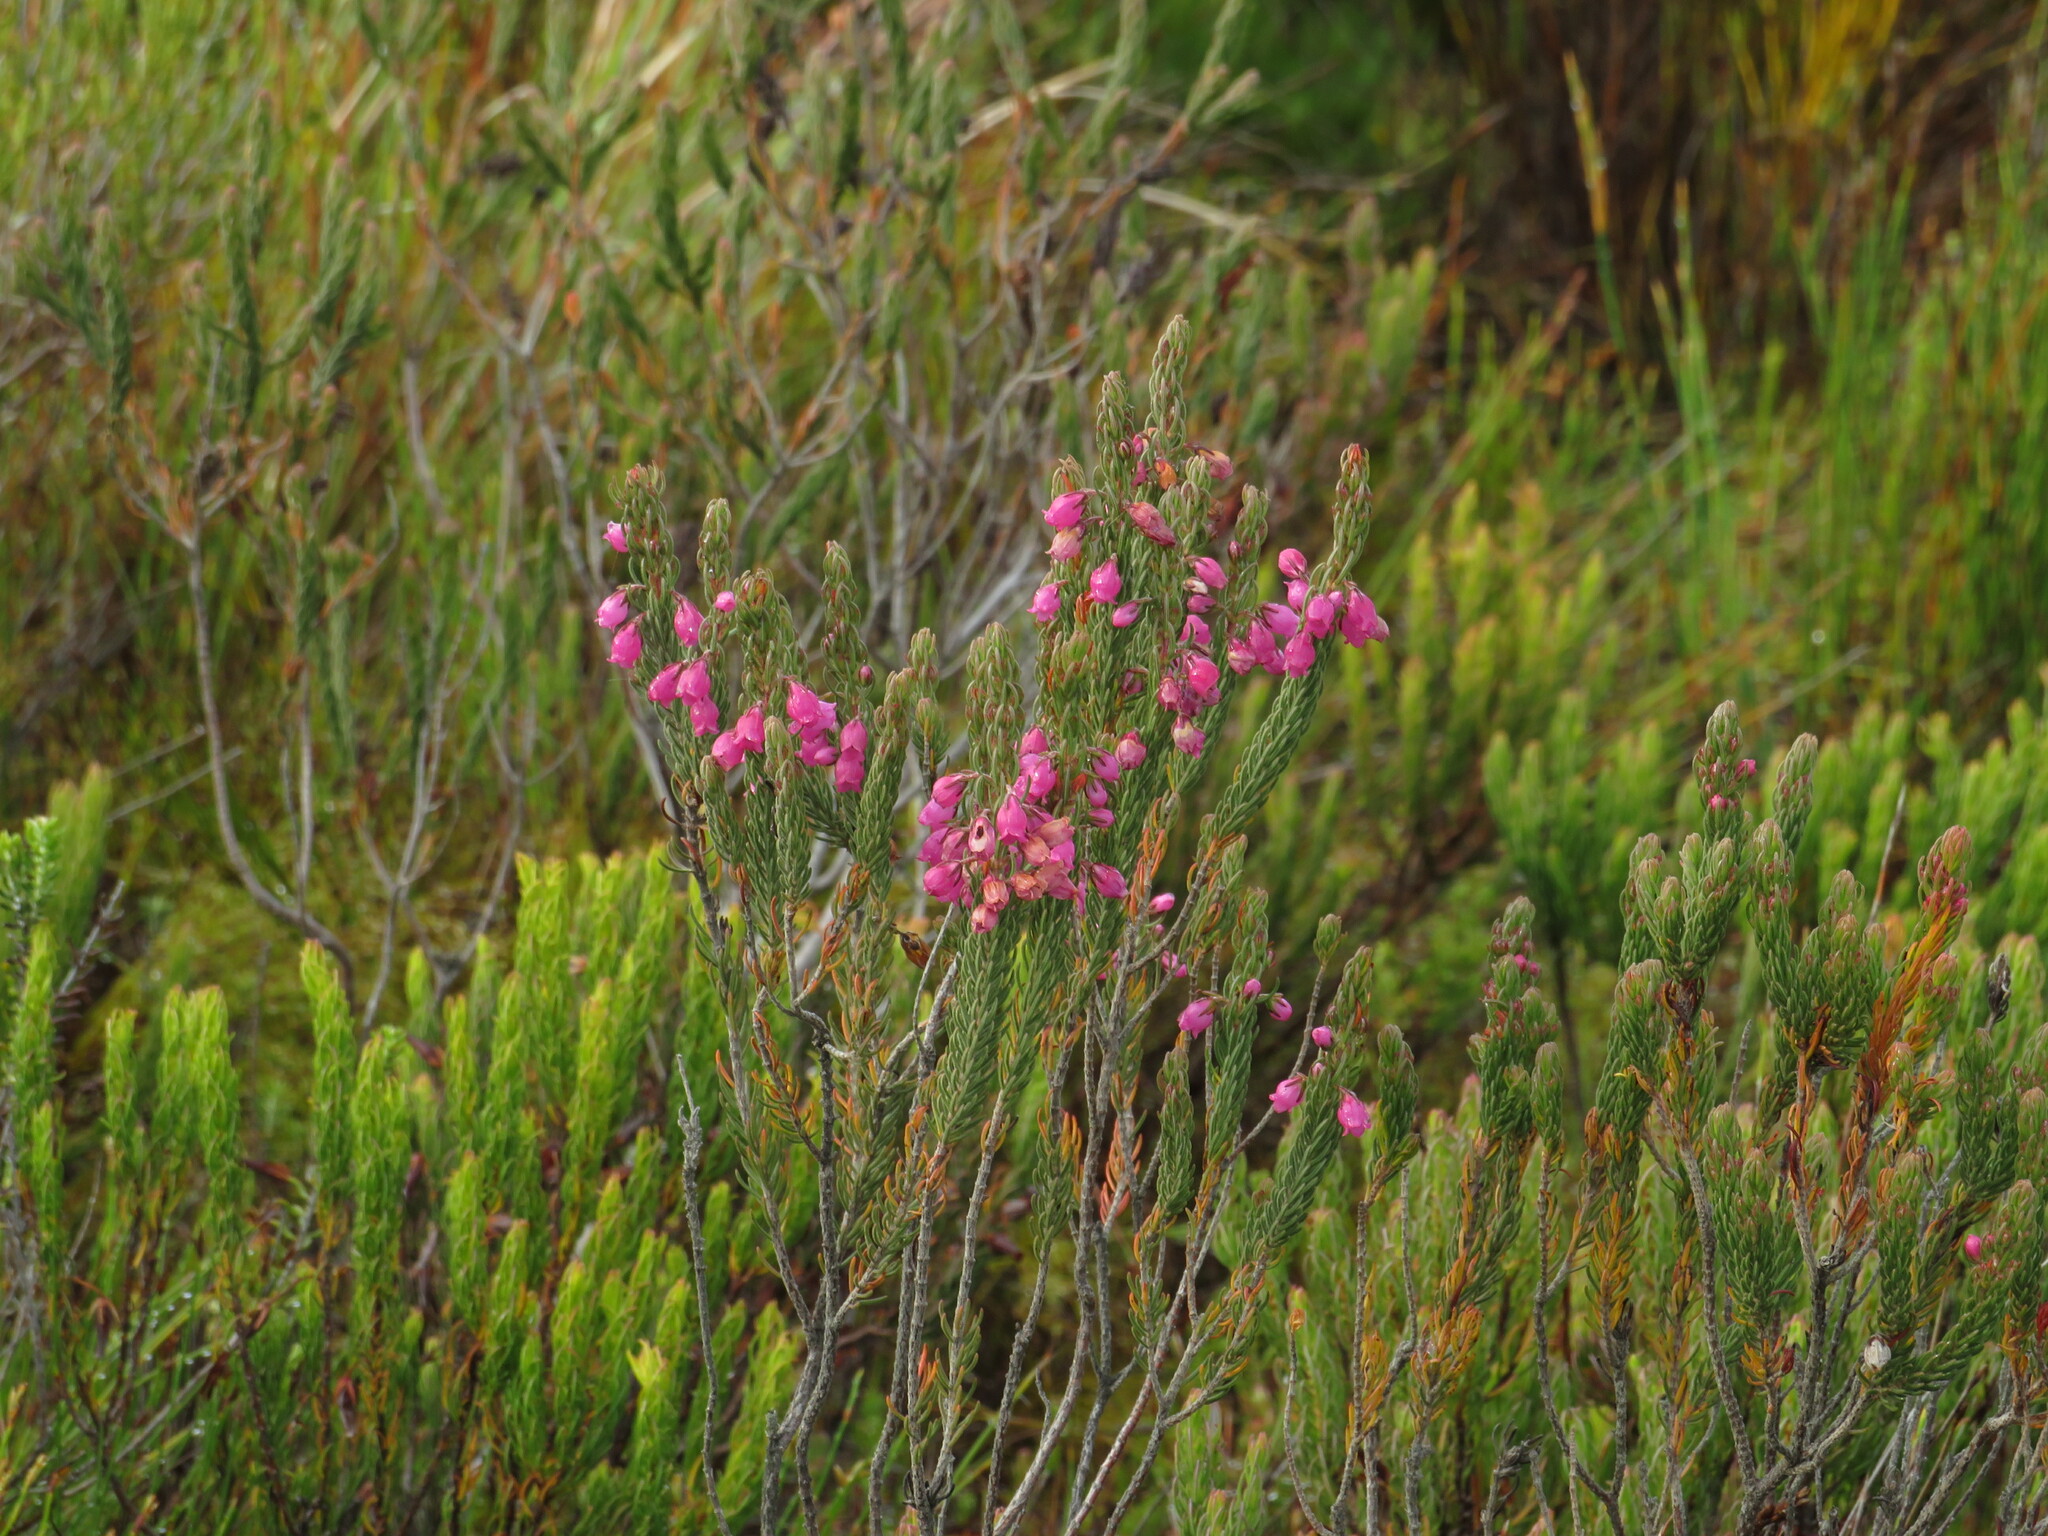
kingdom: Plantae
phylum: Tracheophyta
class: Magnoliopsida
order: Ericales
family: Ericaceae
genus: Erica
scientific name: Erica viscaria
